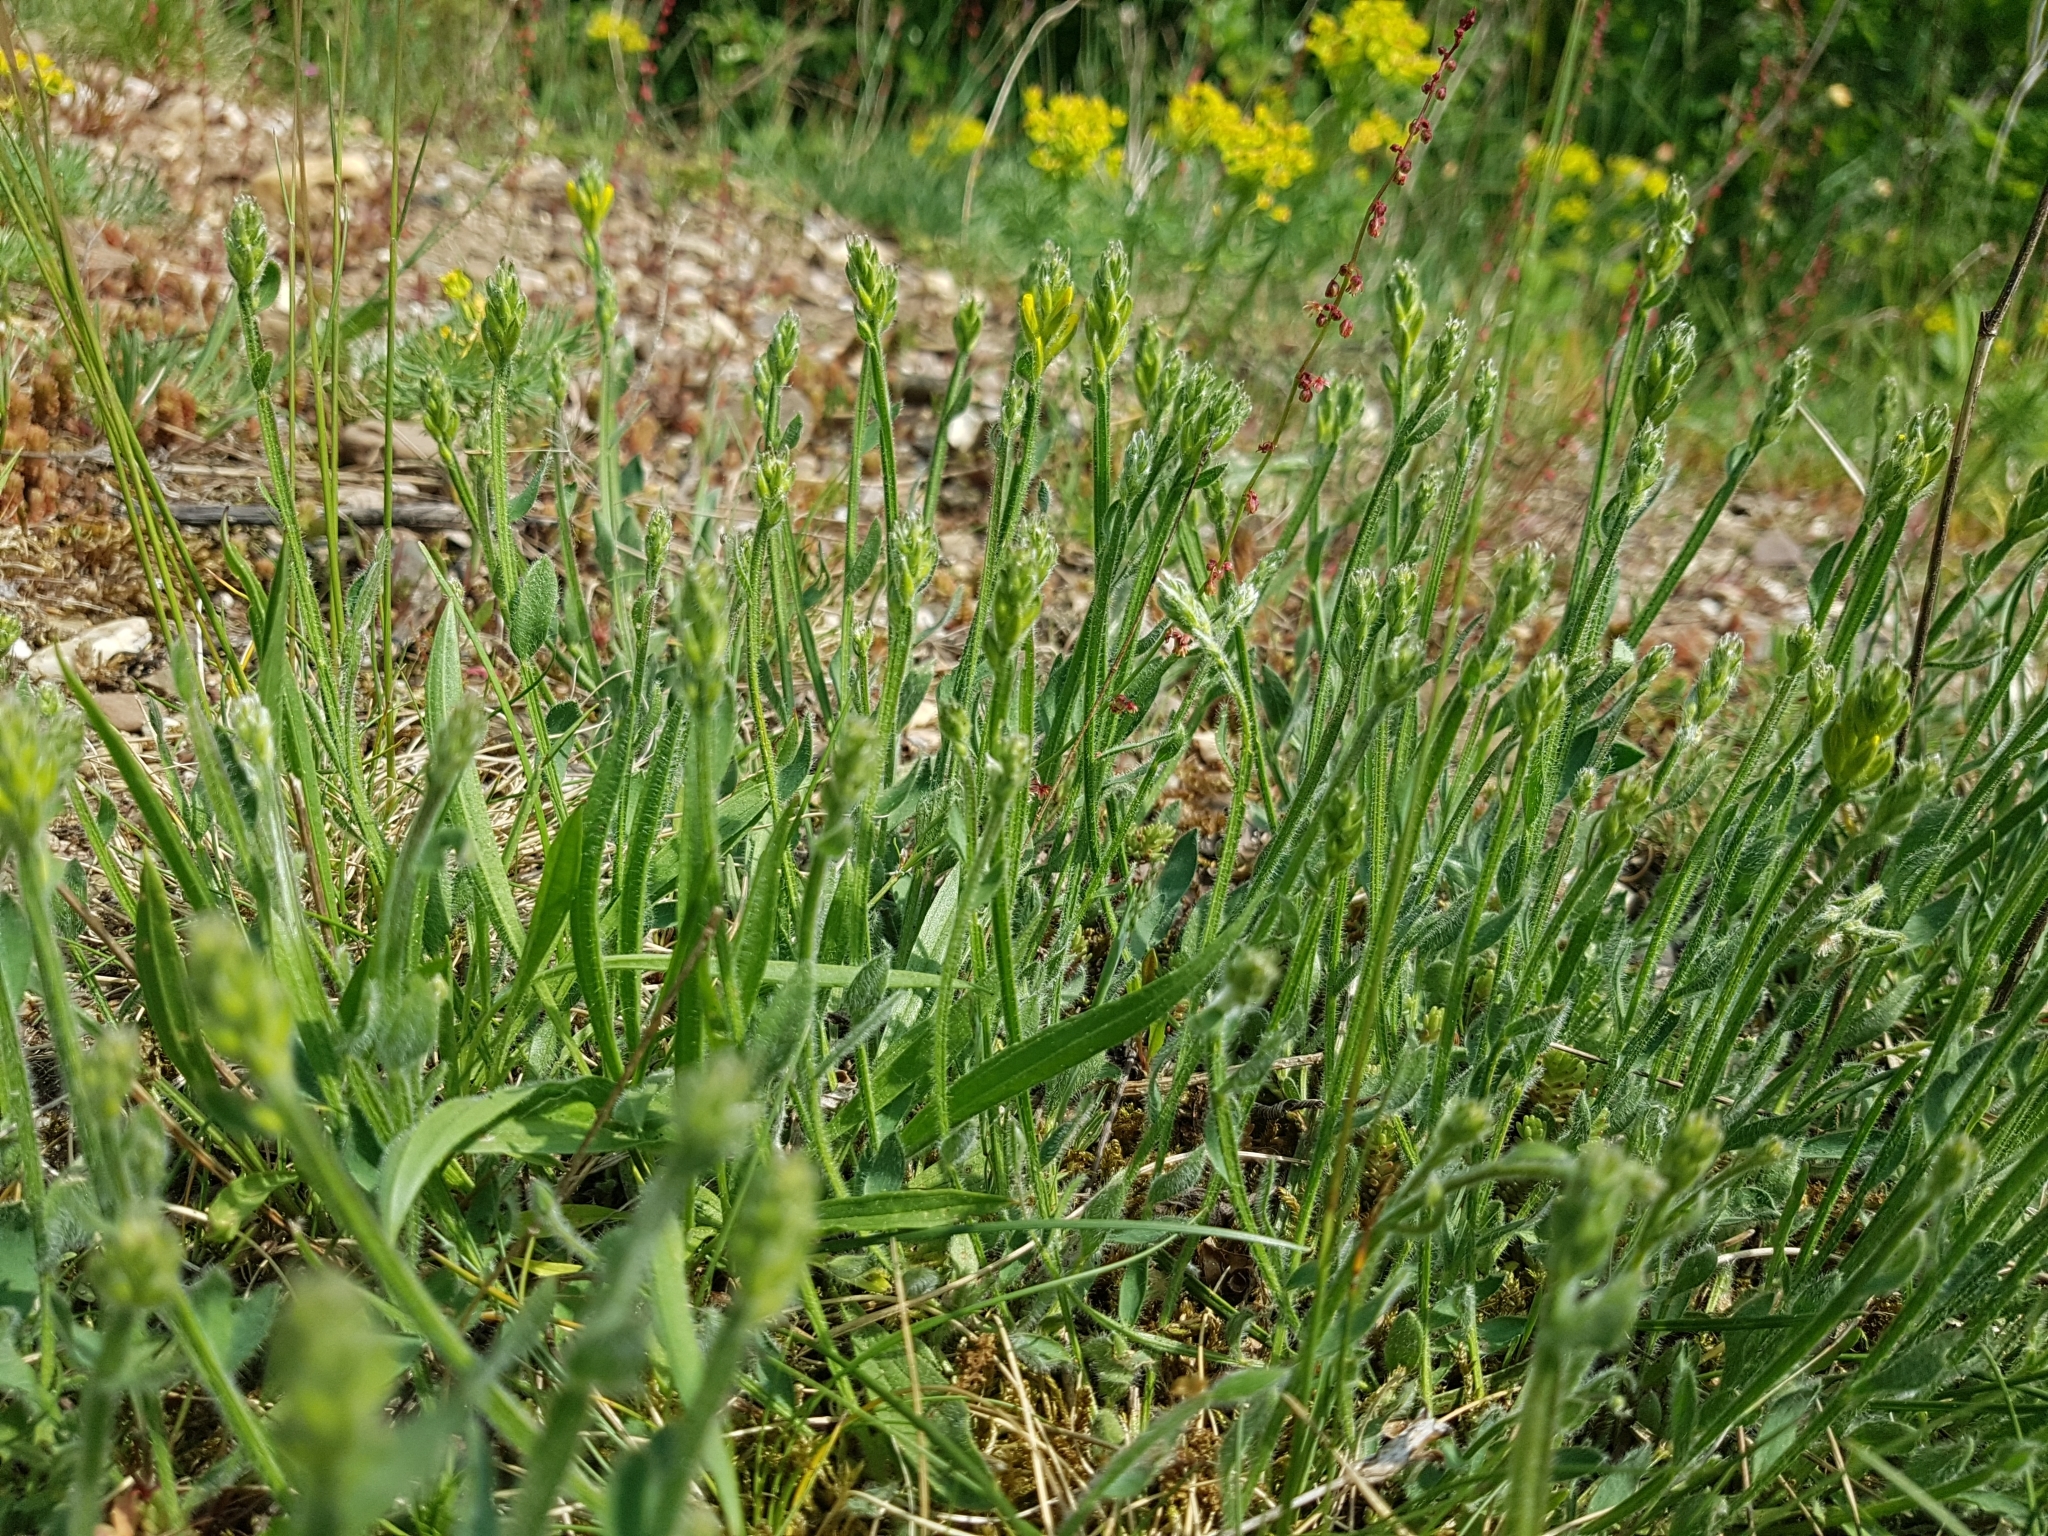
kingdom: Plantae
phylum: Tracheophyta
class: Magnoliopsida
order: Fabales
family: Fabaceae
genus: Genista
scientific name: Genista sagittalis
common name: Winged greenweed
